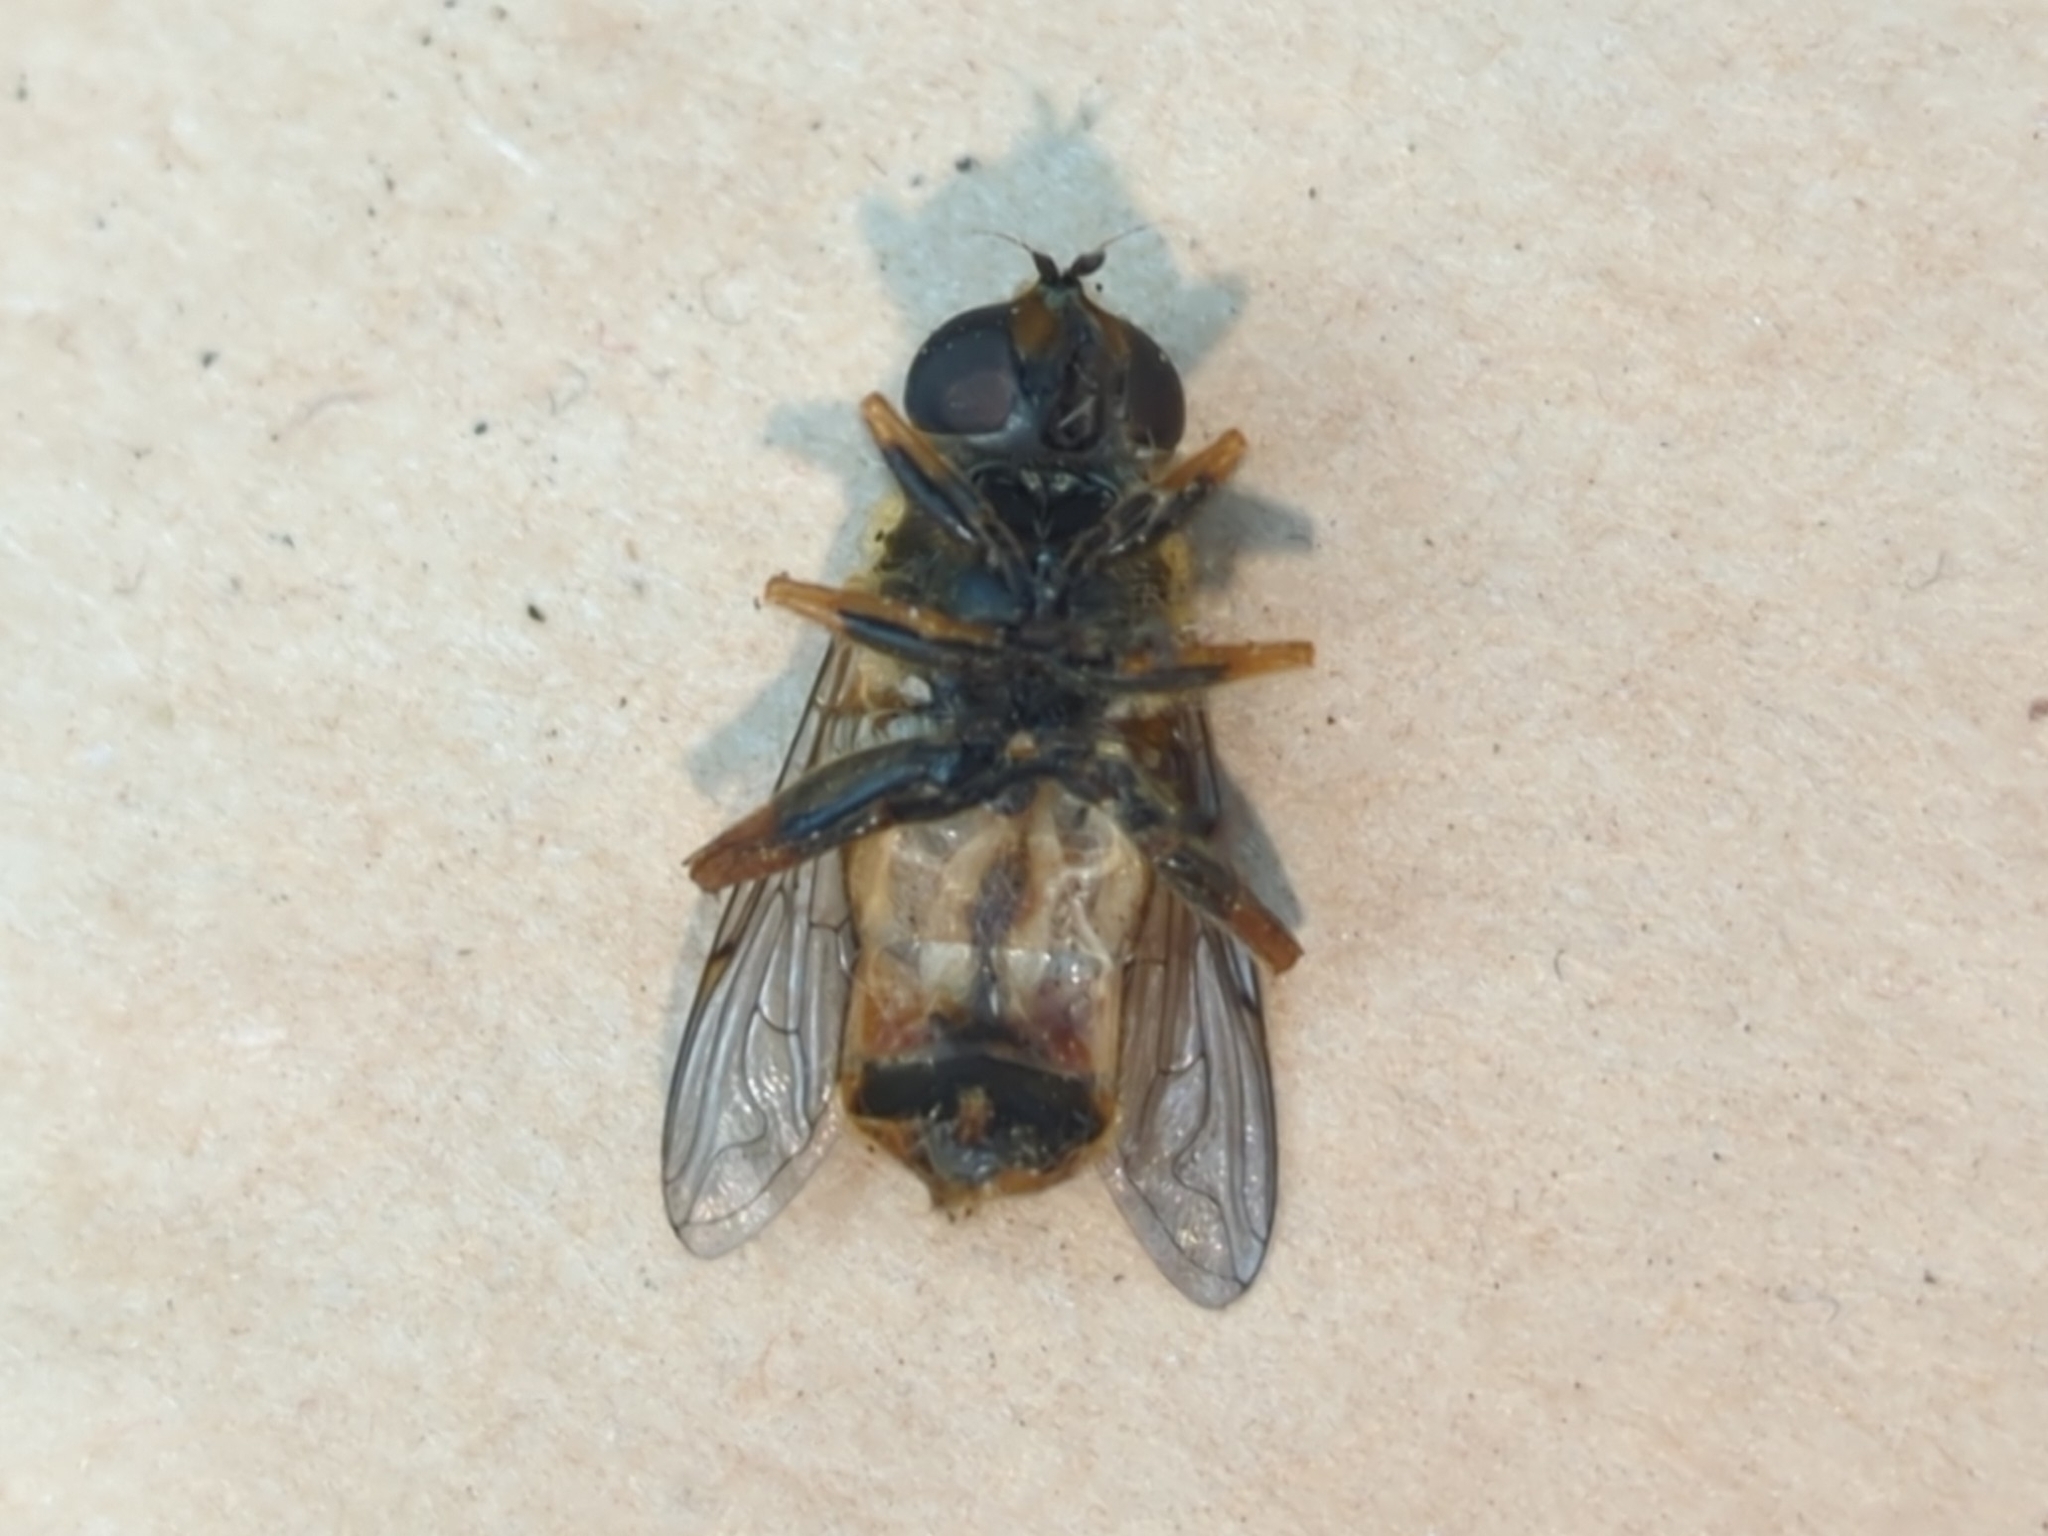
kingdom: Animalia
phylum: Arthropoda
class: Insecta
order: Diptera
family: Syrphidae
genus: Helophilus
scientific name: Helophilus pendulus
